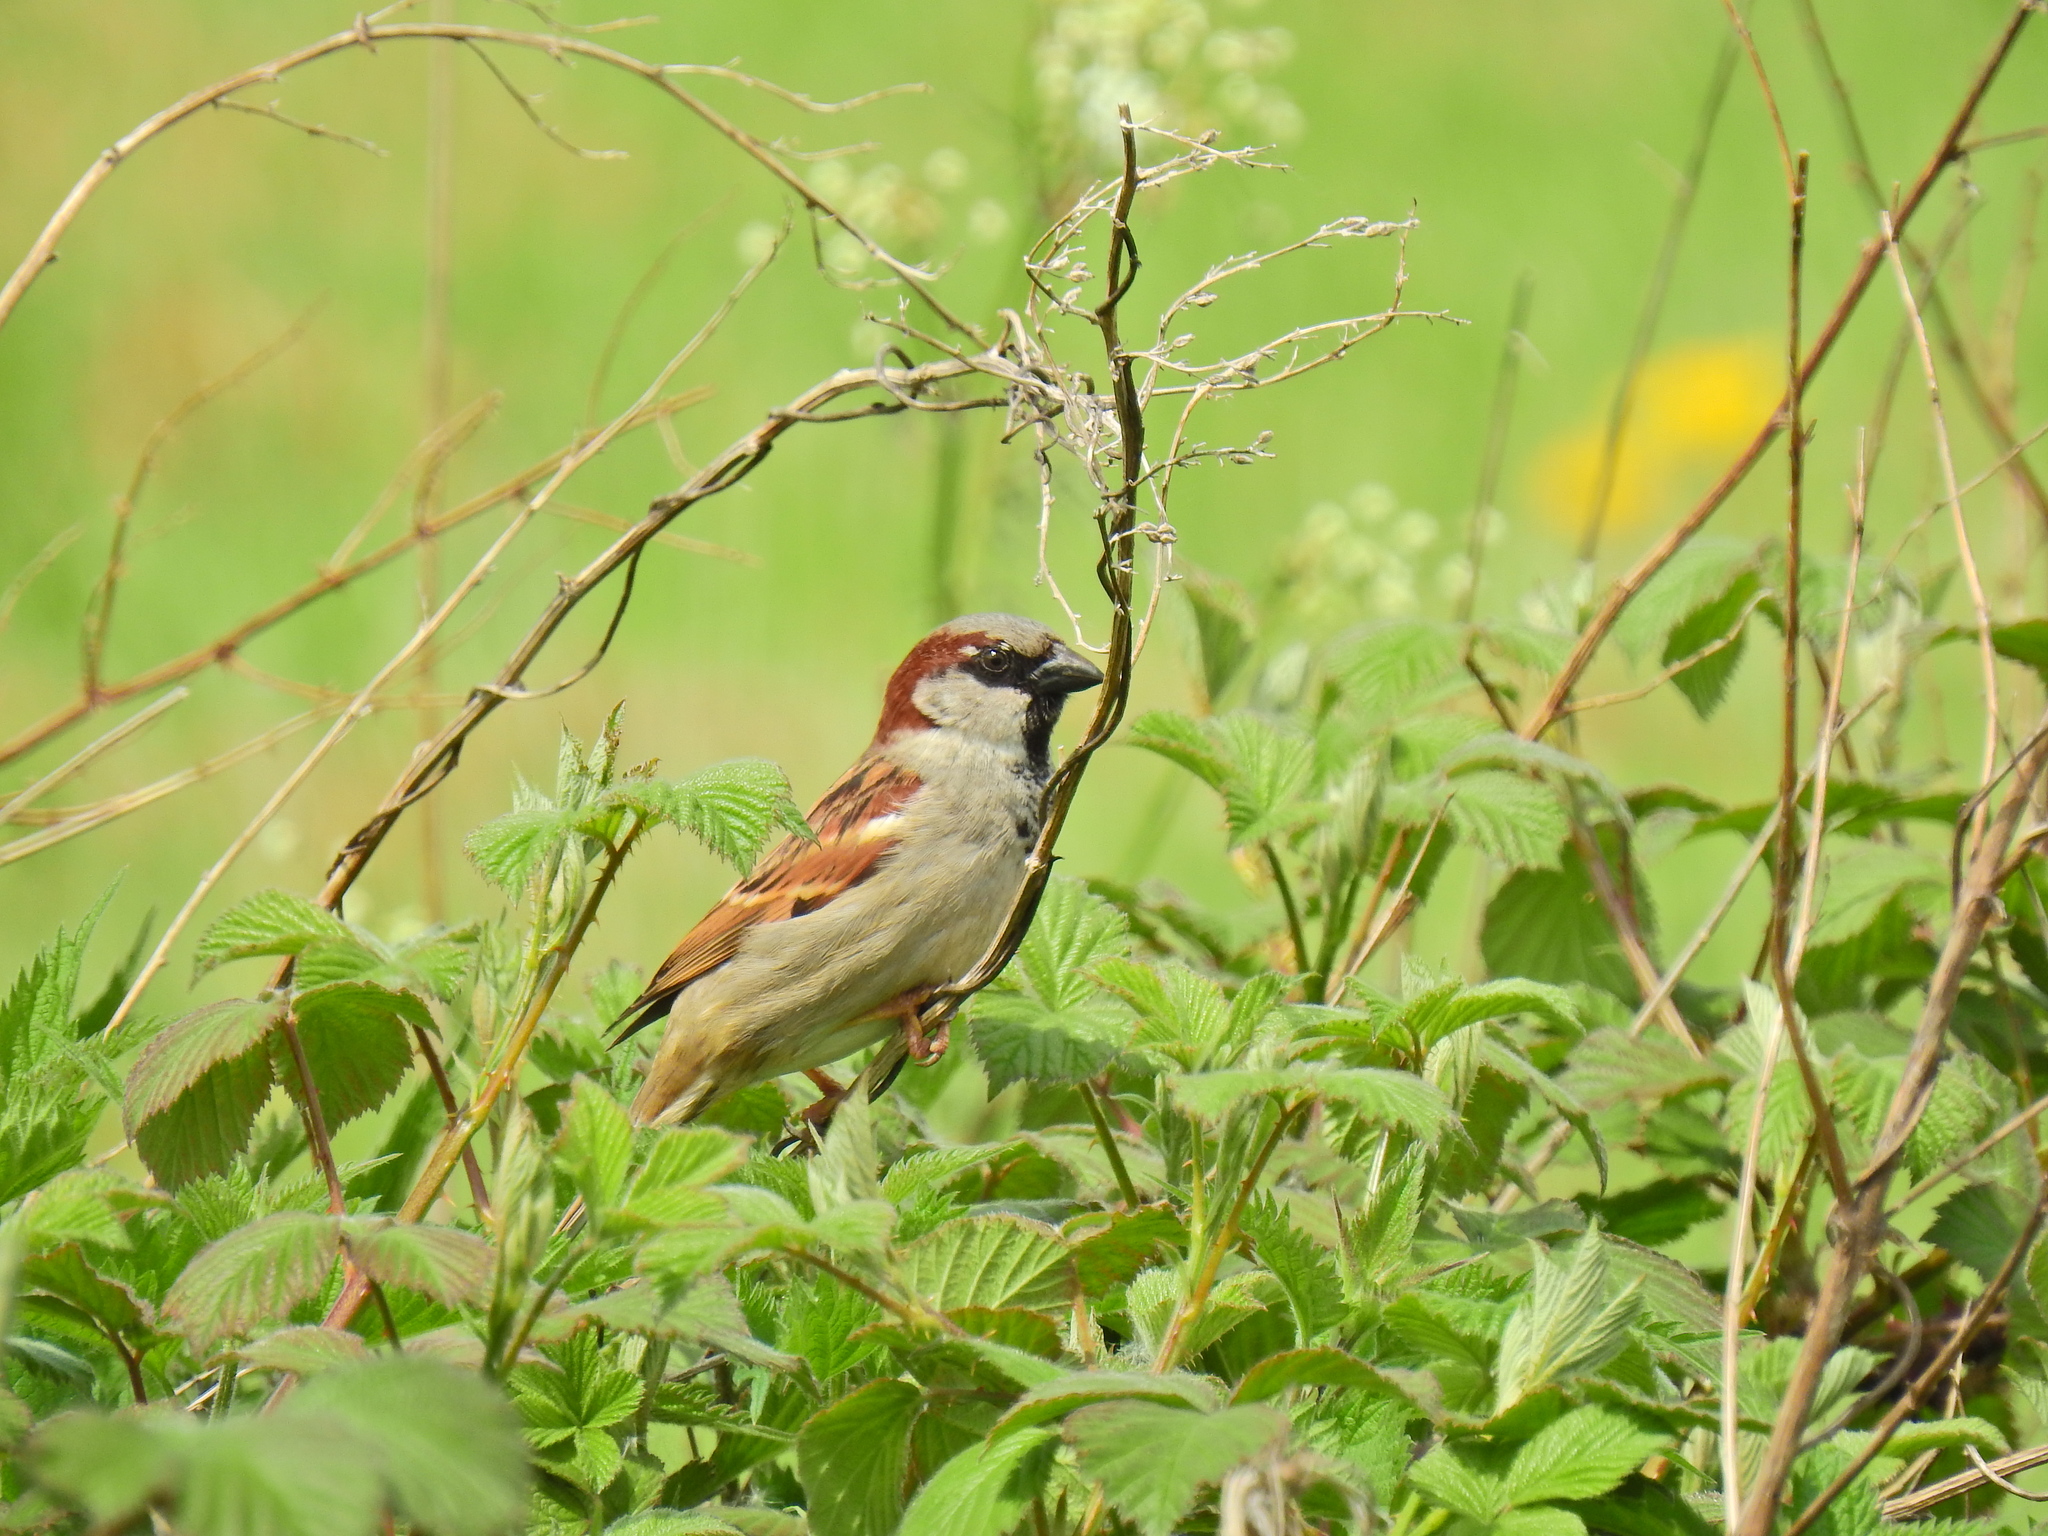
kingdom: Animalia
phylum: Chordata
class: Aves
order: Passeriformes
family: Passeridae
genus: Passer
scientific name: Passer domesticus
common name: House sparrow
